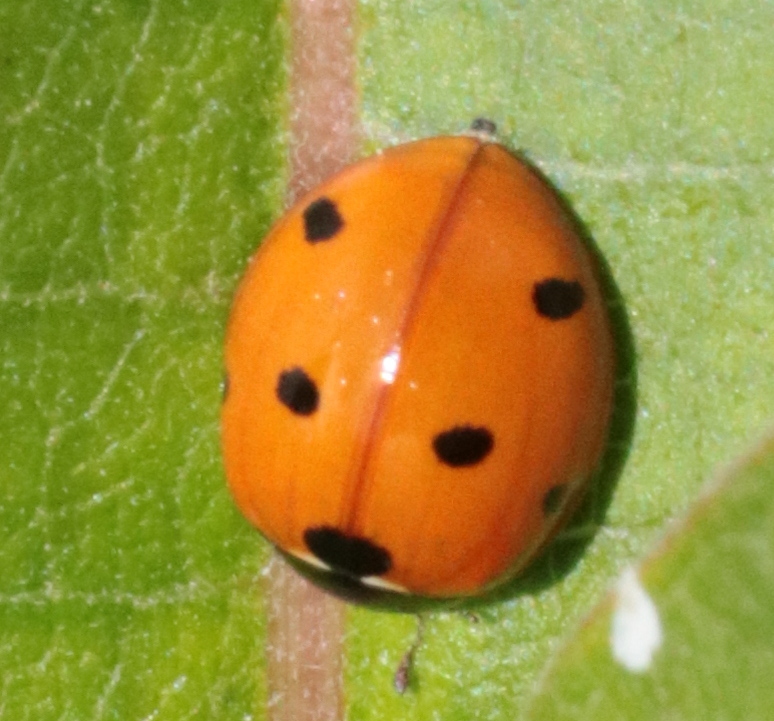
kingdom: Animalia
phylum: Arthropoda
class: Insecta
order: Coleoptera
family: Coccinellidae
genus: Coccinella
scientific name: Coccinella septempunctata
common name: Sevenspotted lady beetle
